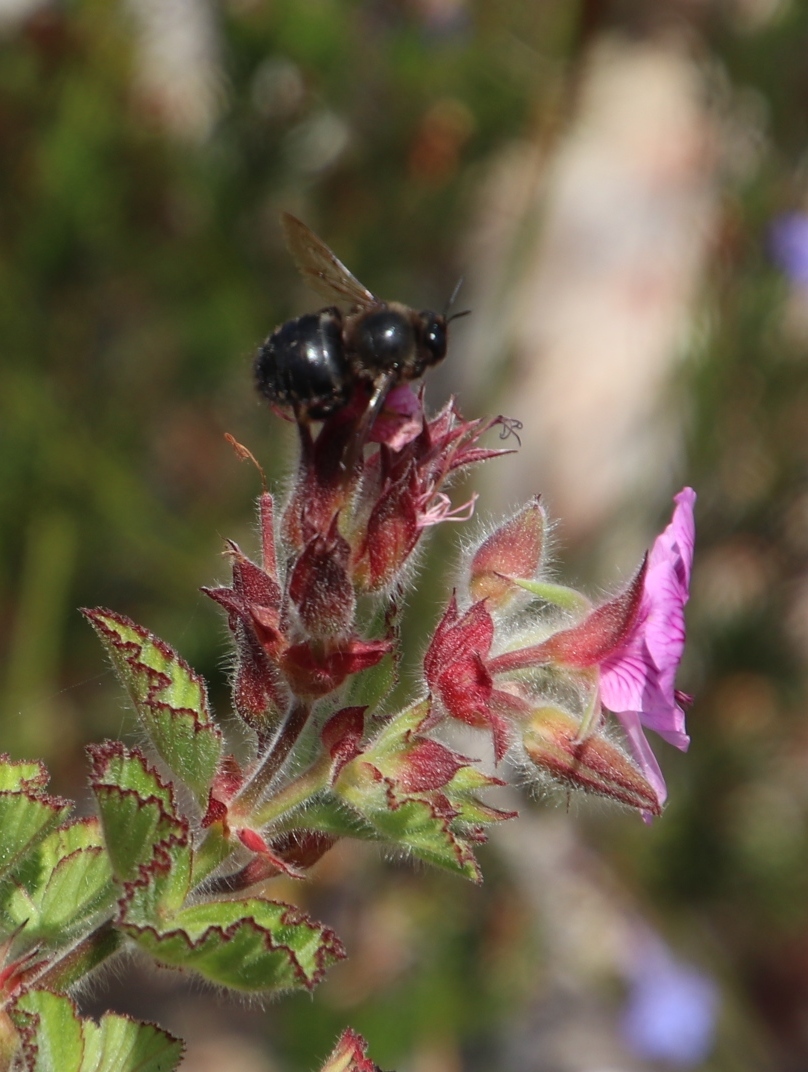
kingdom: Plantae
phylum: Tracheophyta
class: Magnoliopsida
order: Geraniales
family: Geraniaceae
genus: Pelargonium
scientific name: Pelargonium cucullatum
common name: Tree pelargonium
